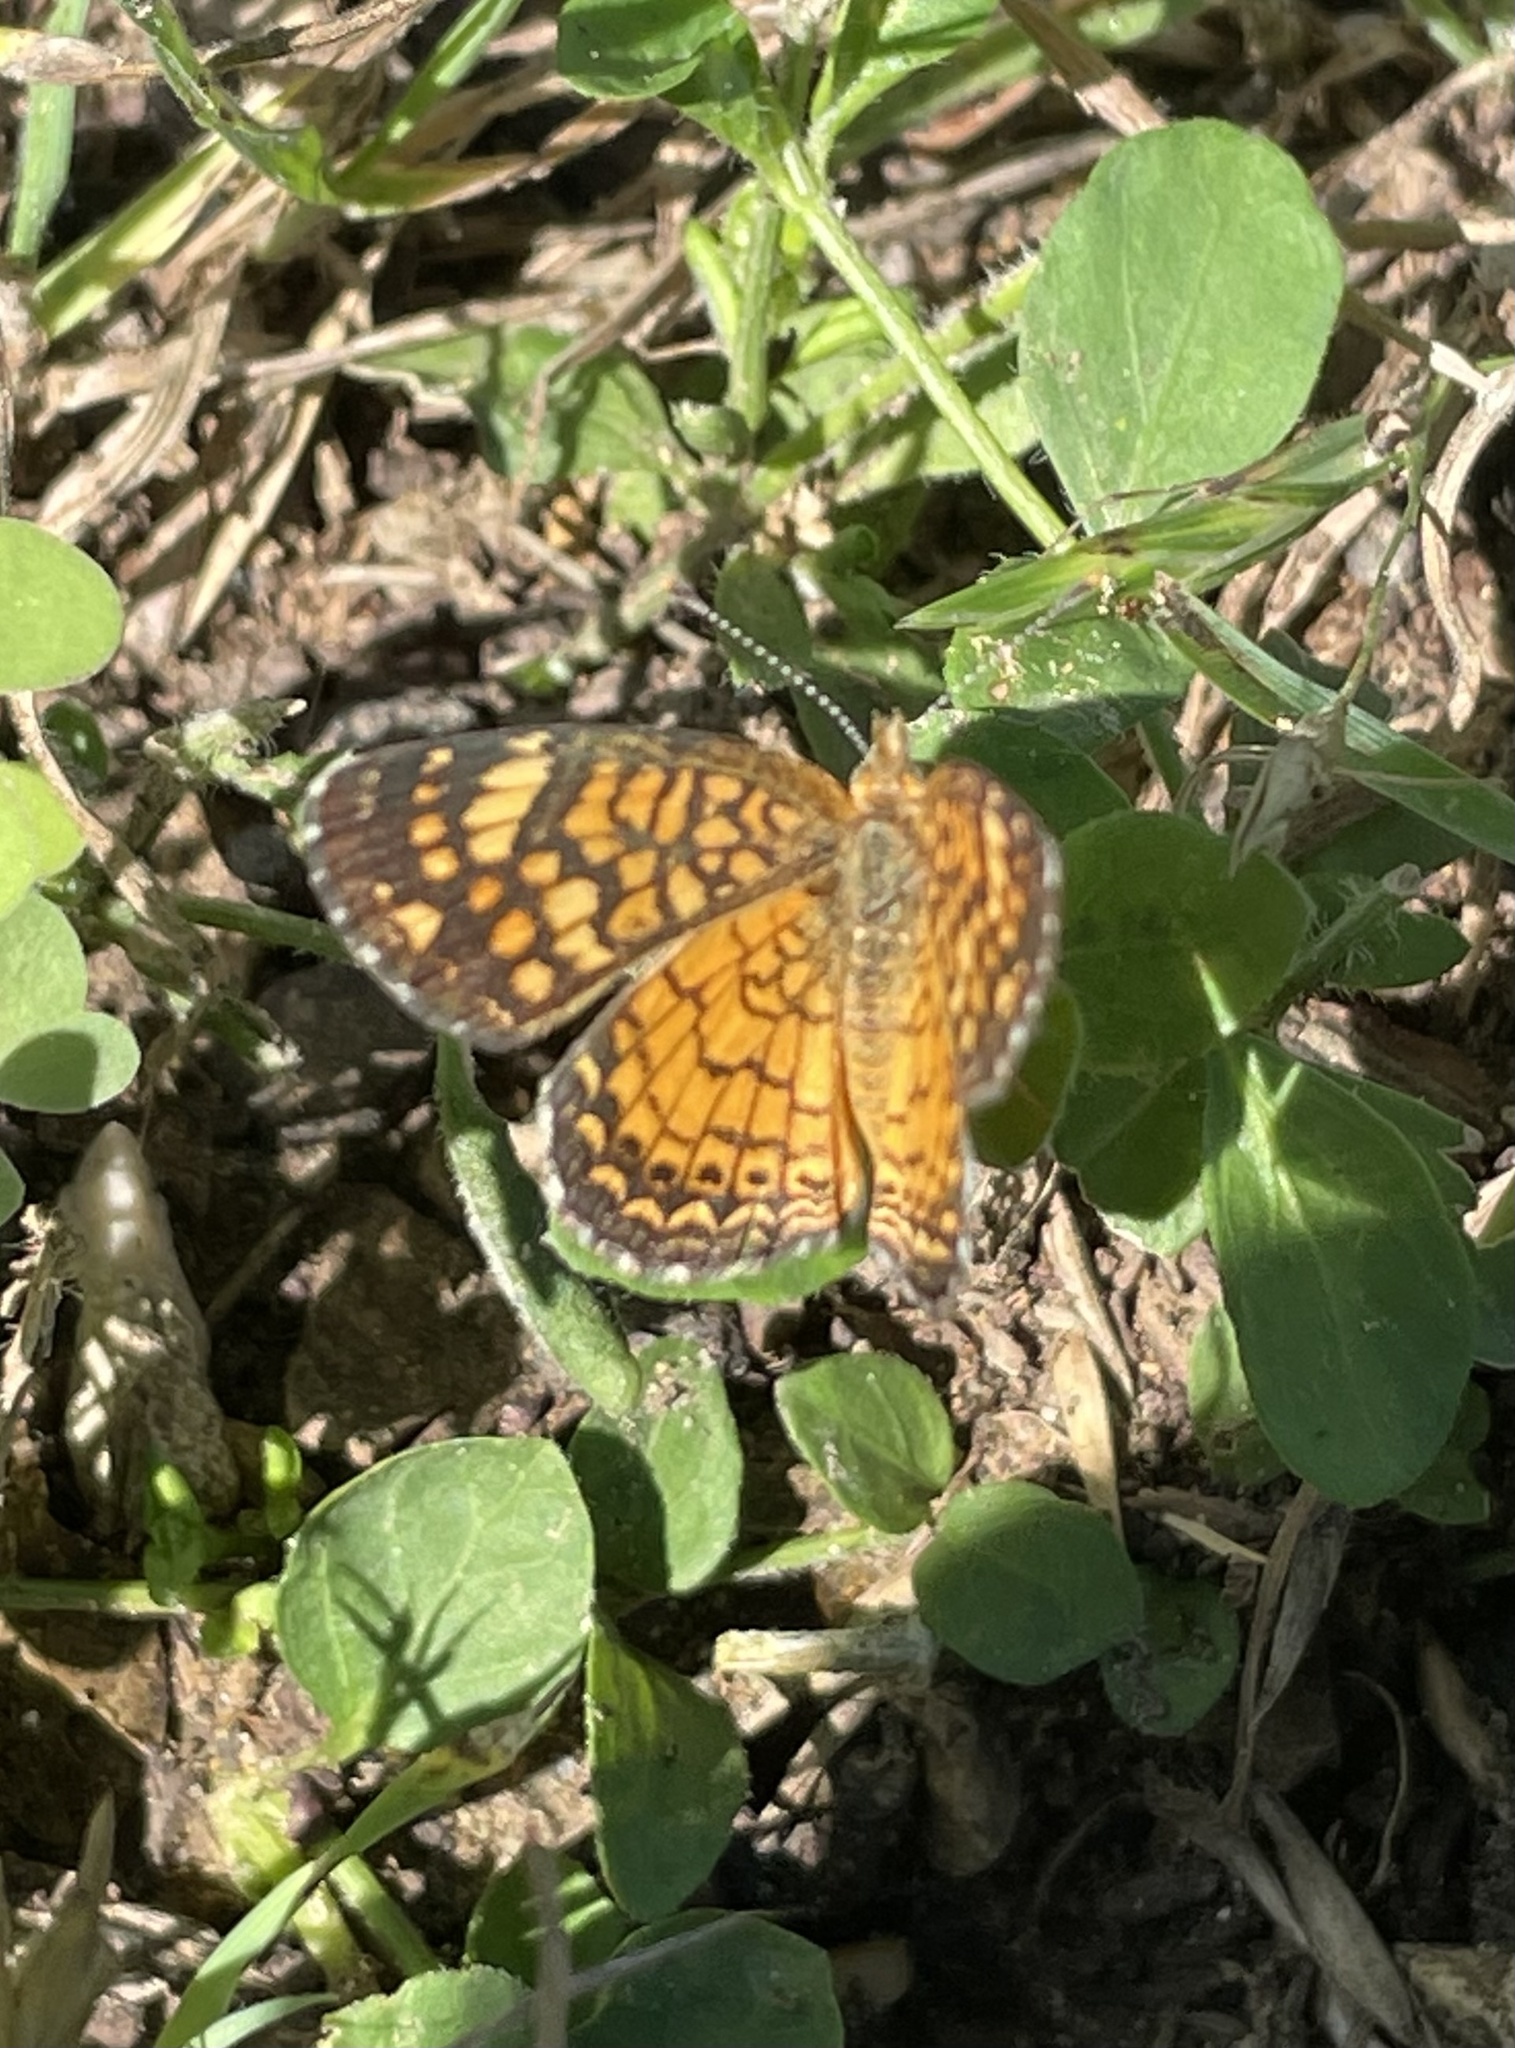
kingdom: Animalia
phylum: Arthropoda
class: Insecta
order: Lepidoptera
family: Nymphalidae
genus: Phyciodes
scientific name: Phyciodes vesta
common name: Vesta crescent
